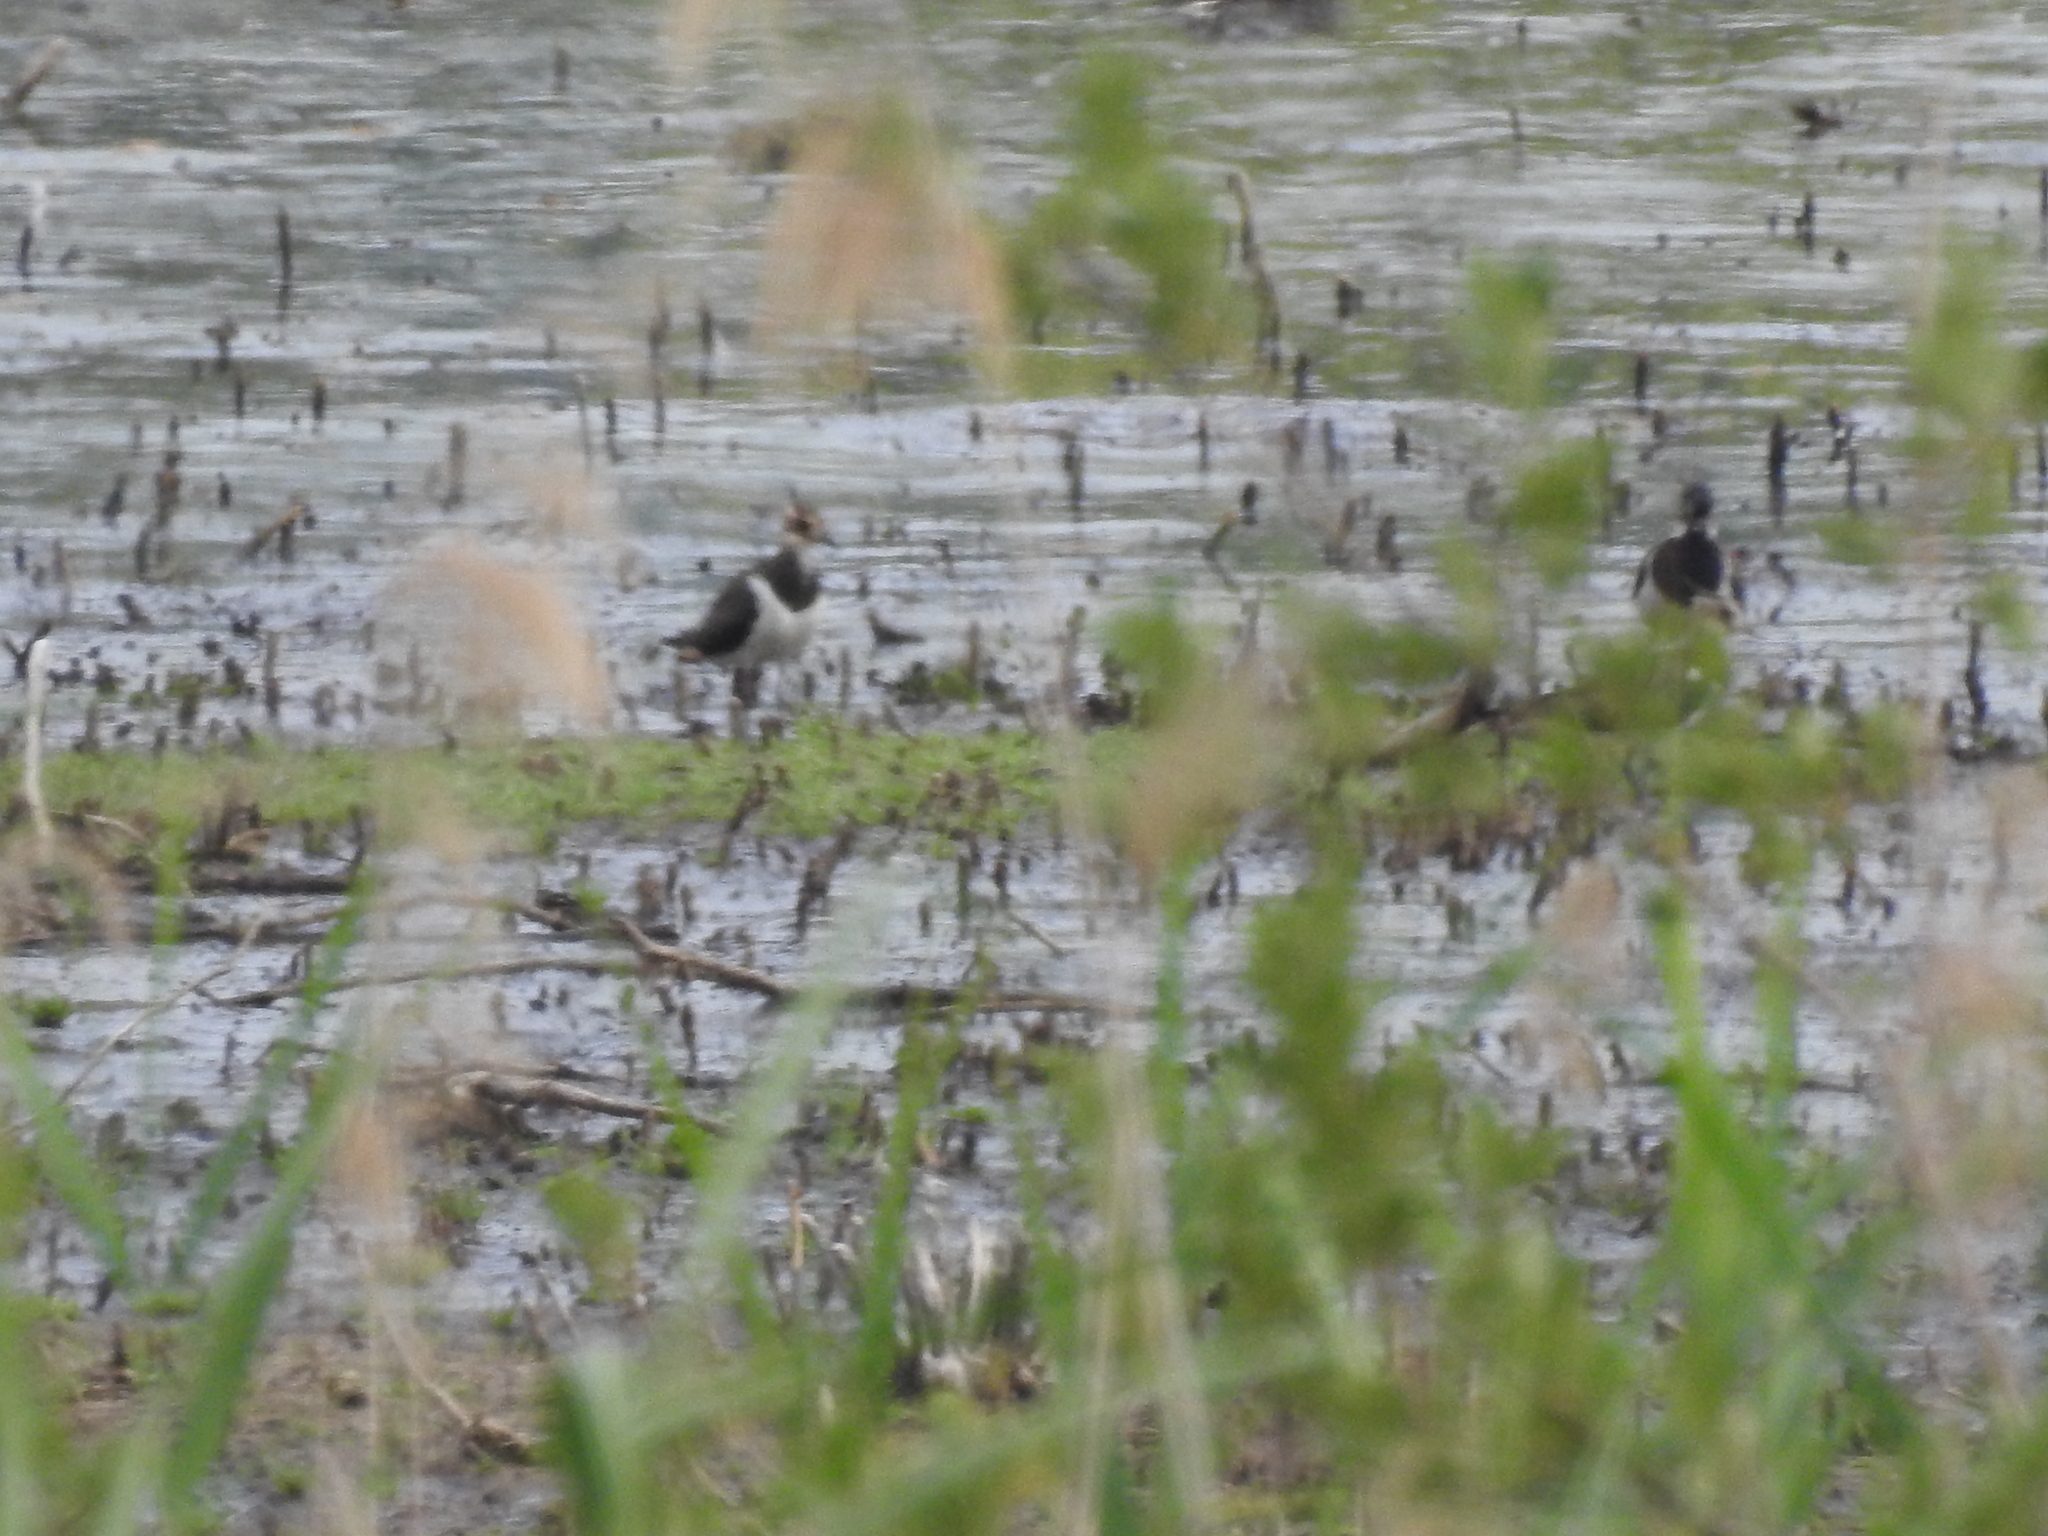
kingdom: Animalia
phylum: Chordata
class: Aves
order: Charadriiformes
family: Charadriidae
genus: Vanellus
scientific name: Vanellus vanellus
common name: Northern lapwing
